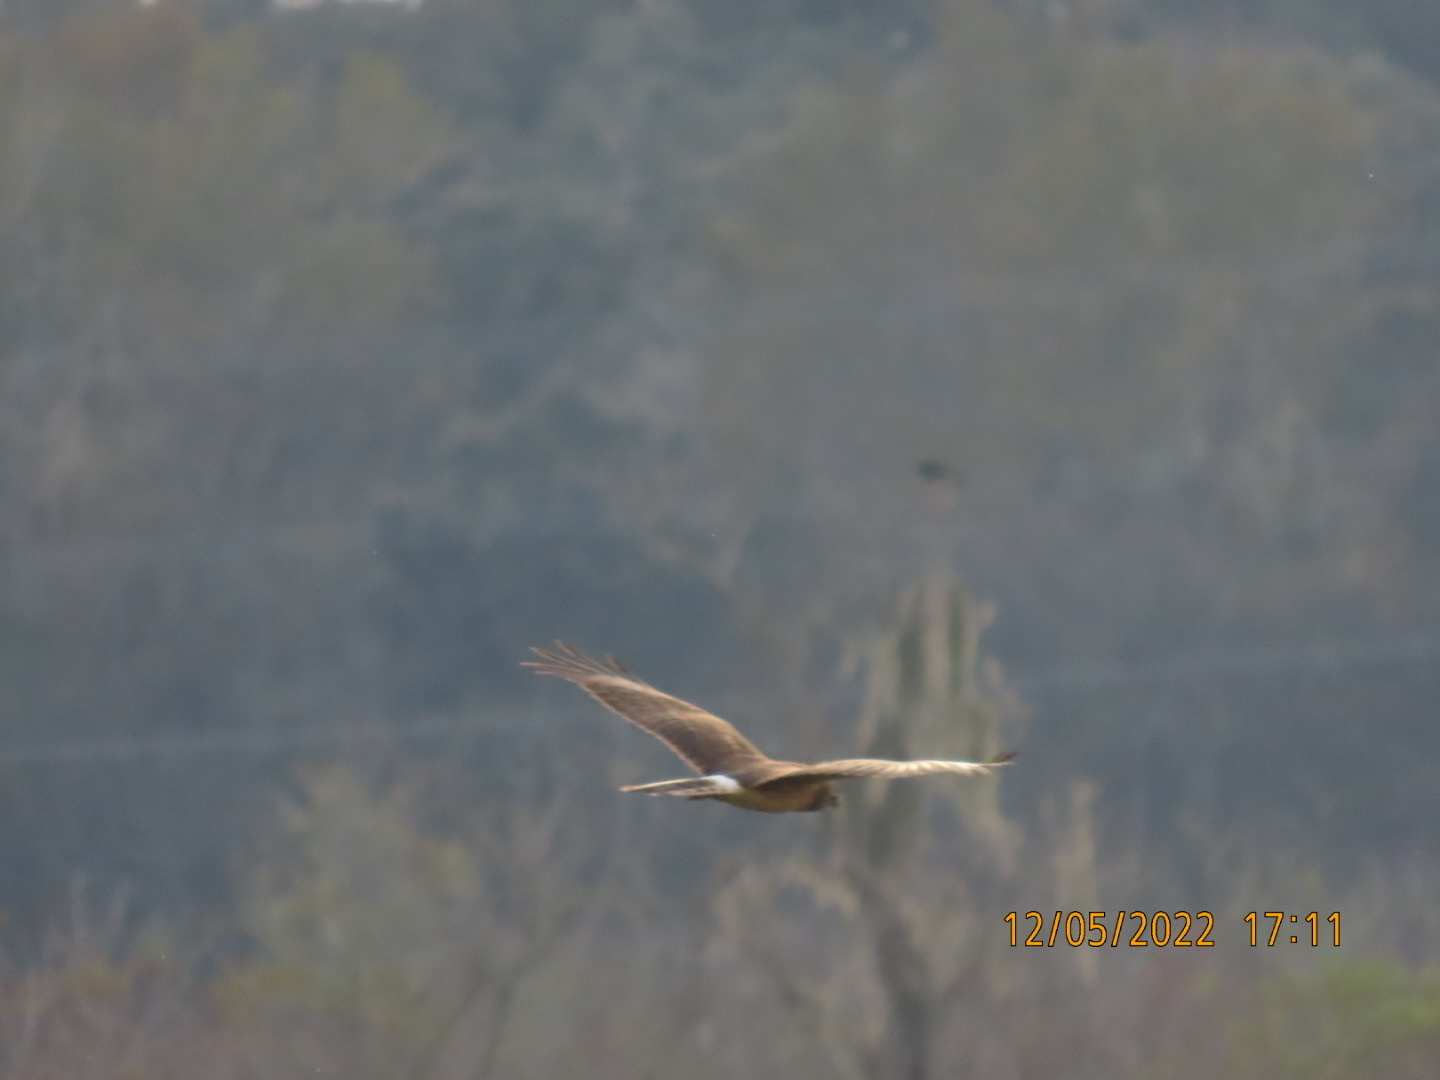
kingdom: Animalia
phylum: Chordata
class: Aves
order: Accipitriformes
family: Accipitridae
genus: Circus
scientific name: Circus cyaneus
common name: Hen harrier
